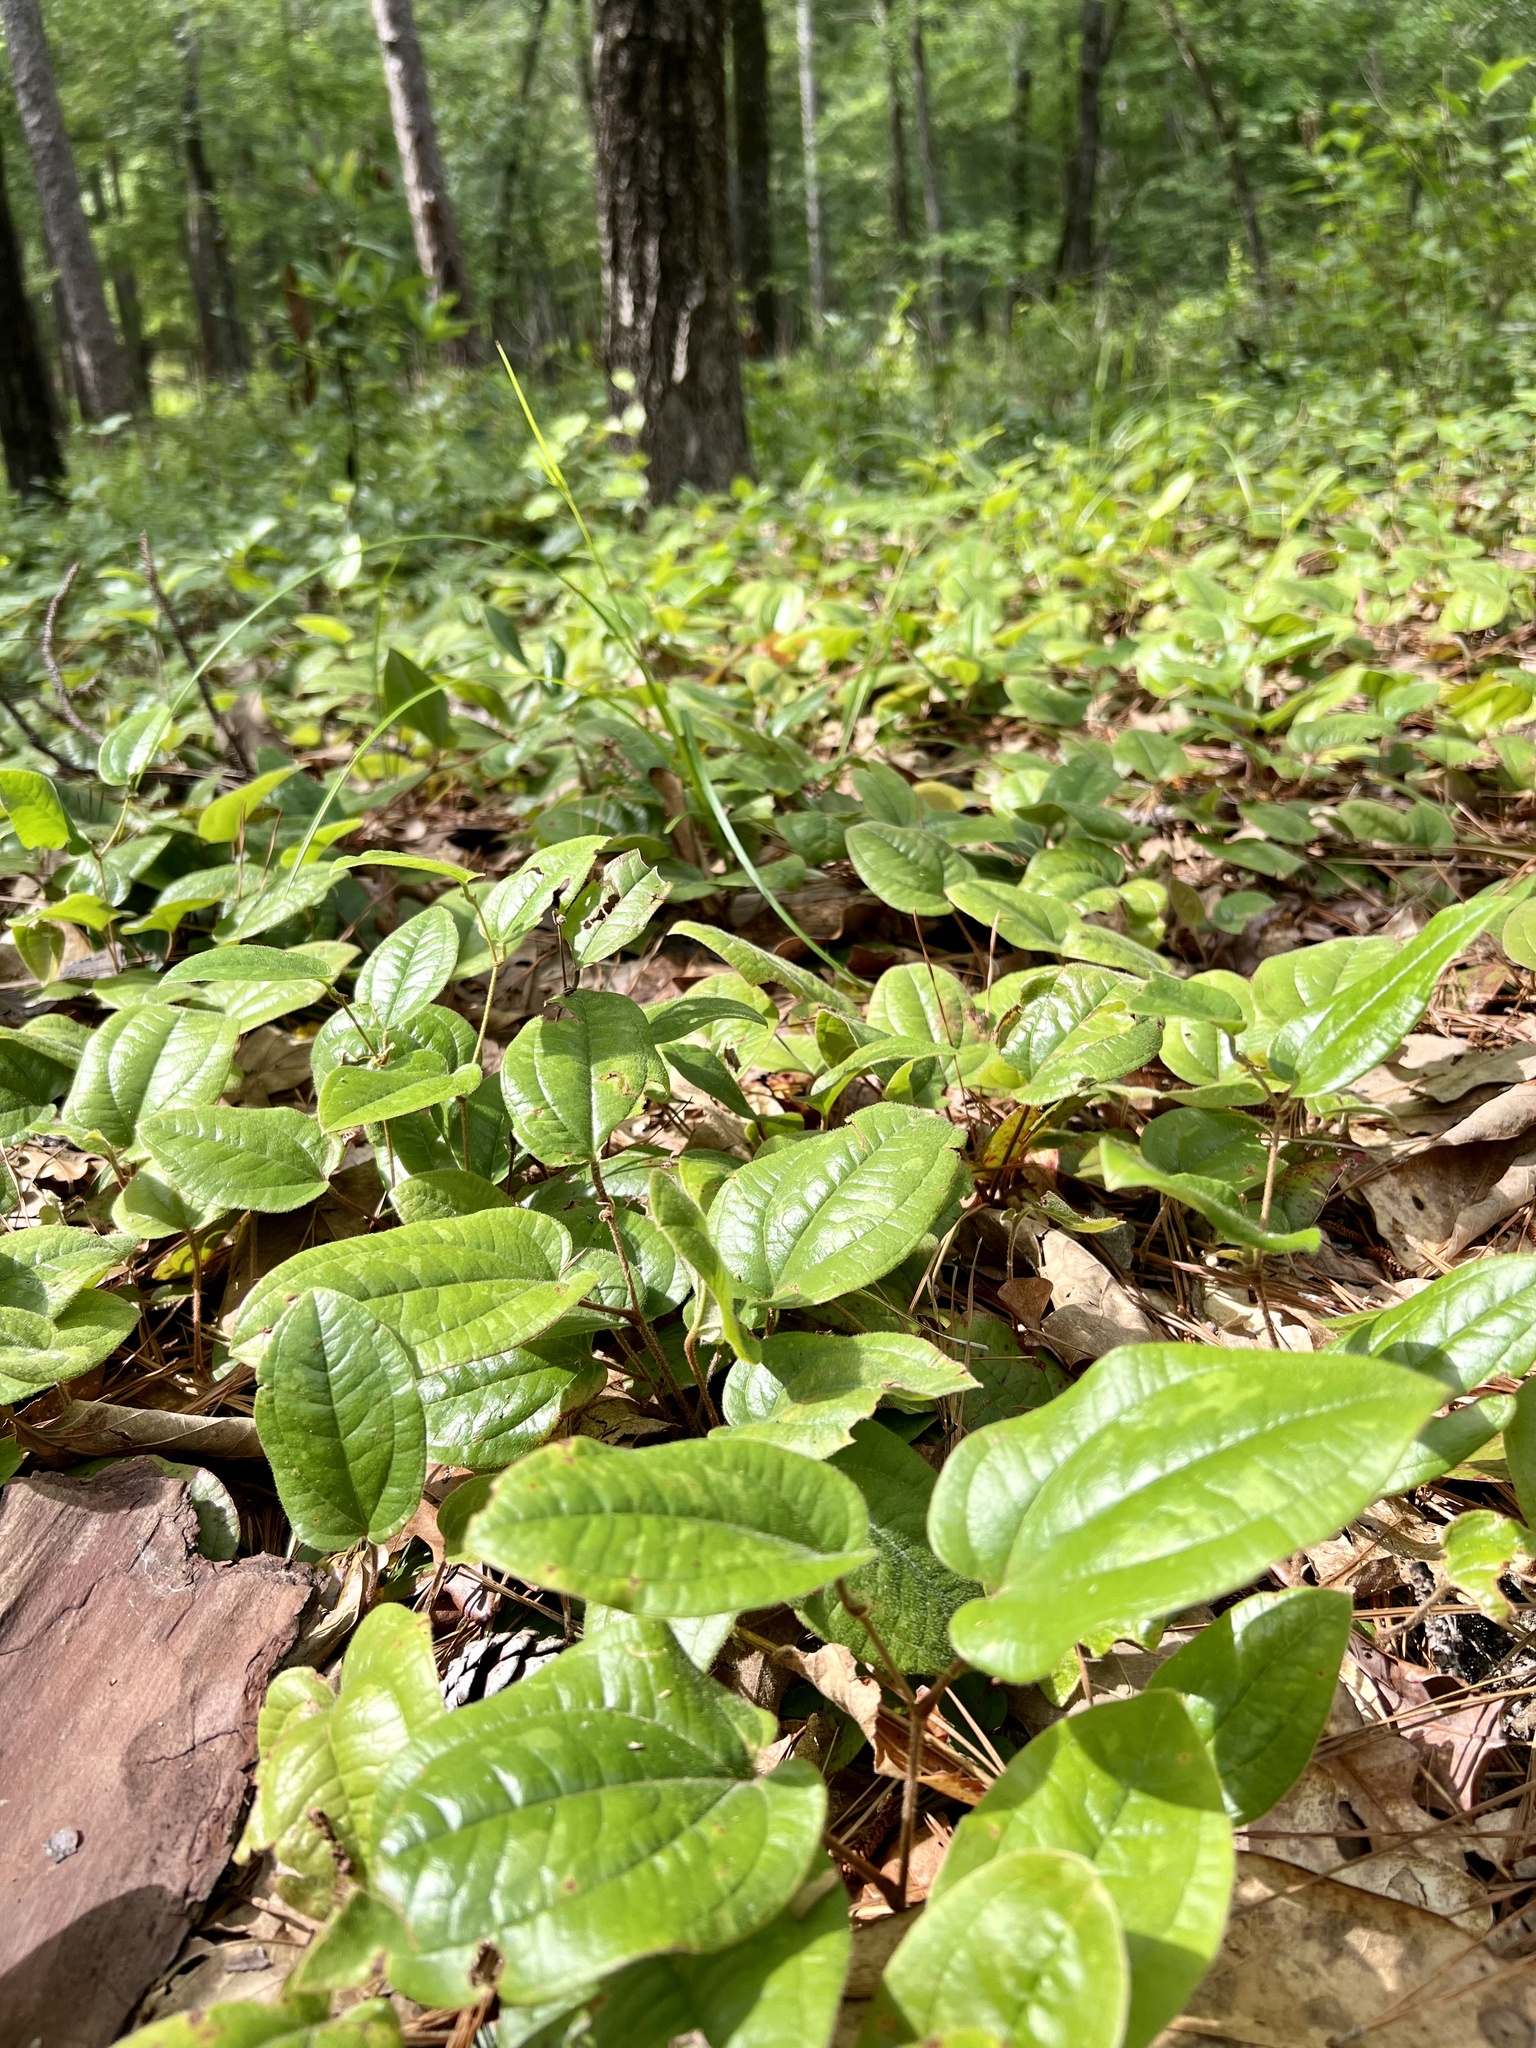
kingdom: Plantae
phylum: Tracheophyta
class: Liliopsida
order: Liliales
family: Smilacaceae
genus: Smilax
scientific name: Smilax pumila
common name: Sarsaparilla-vine
